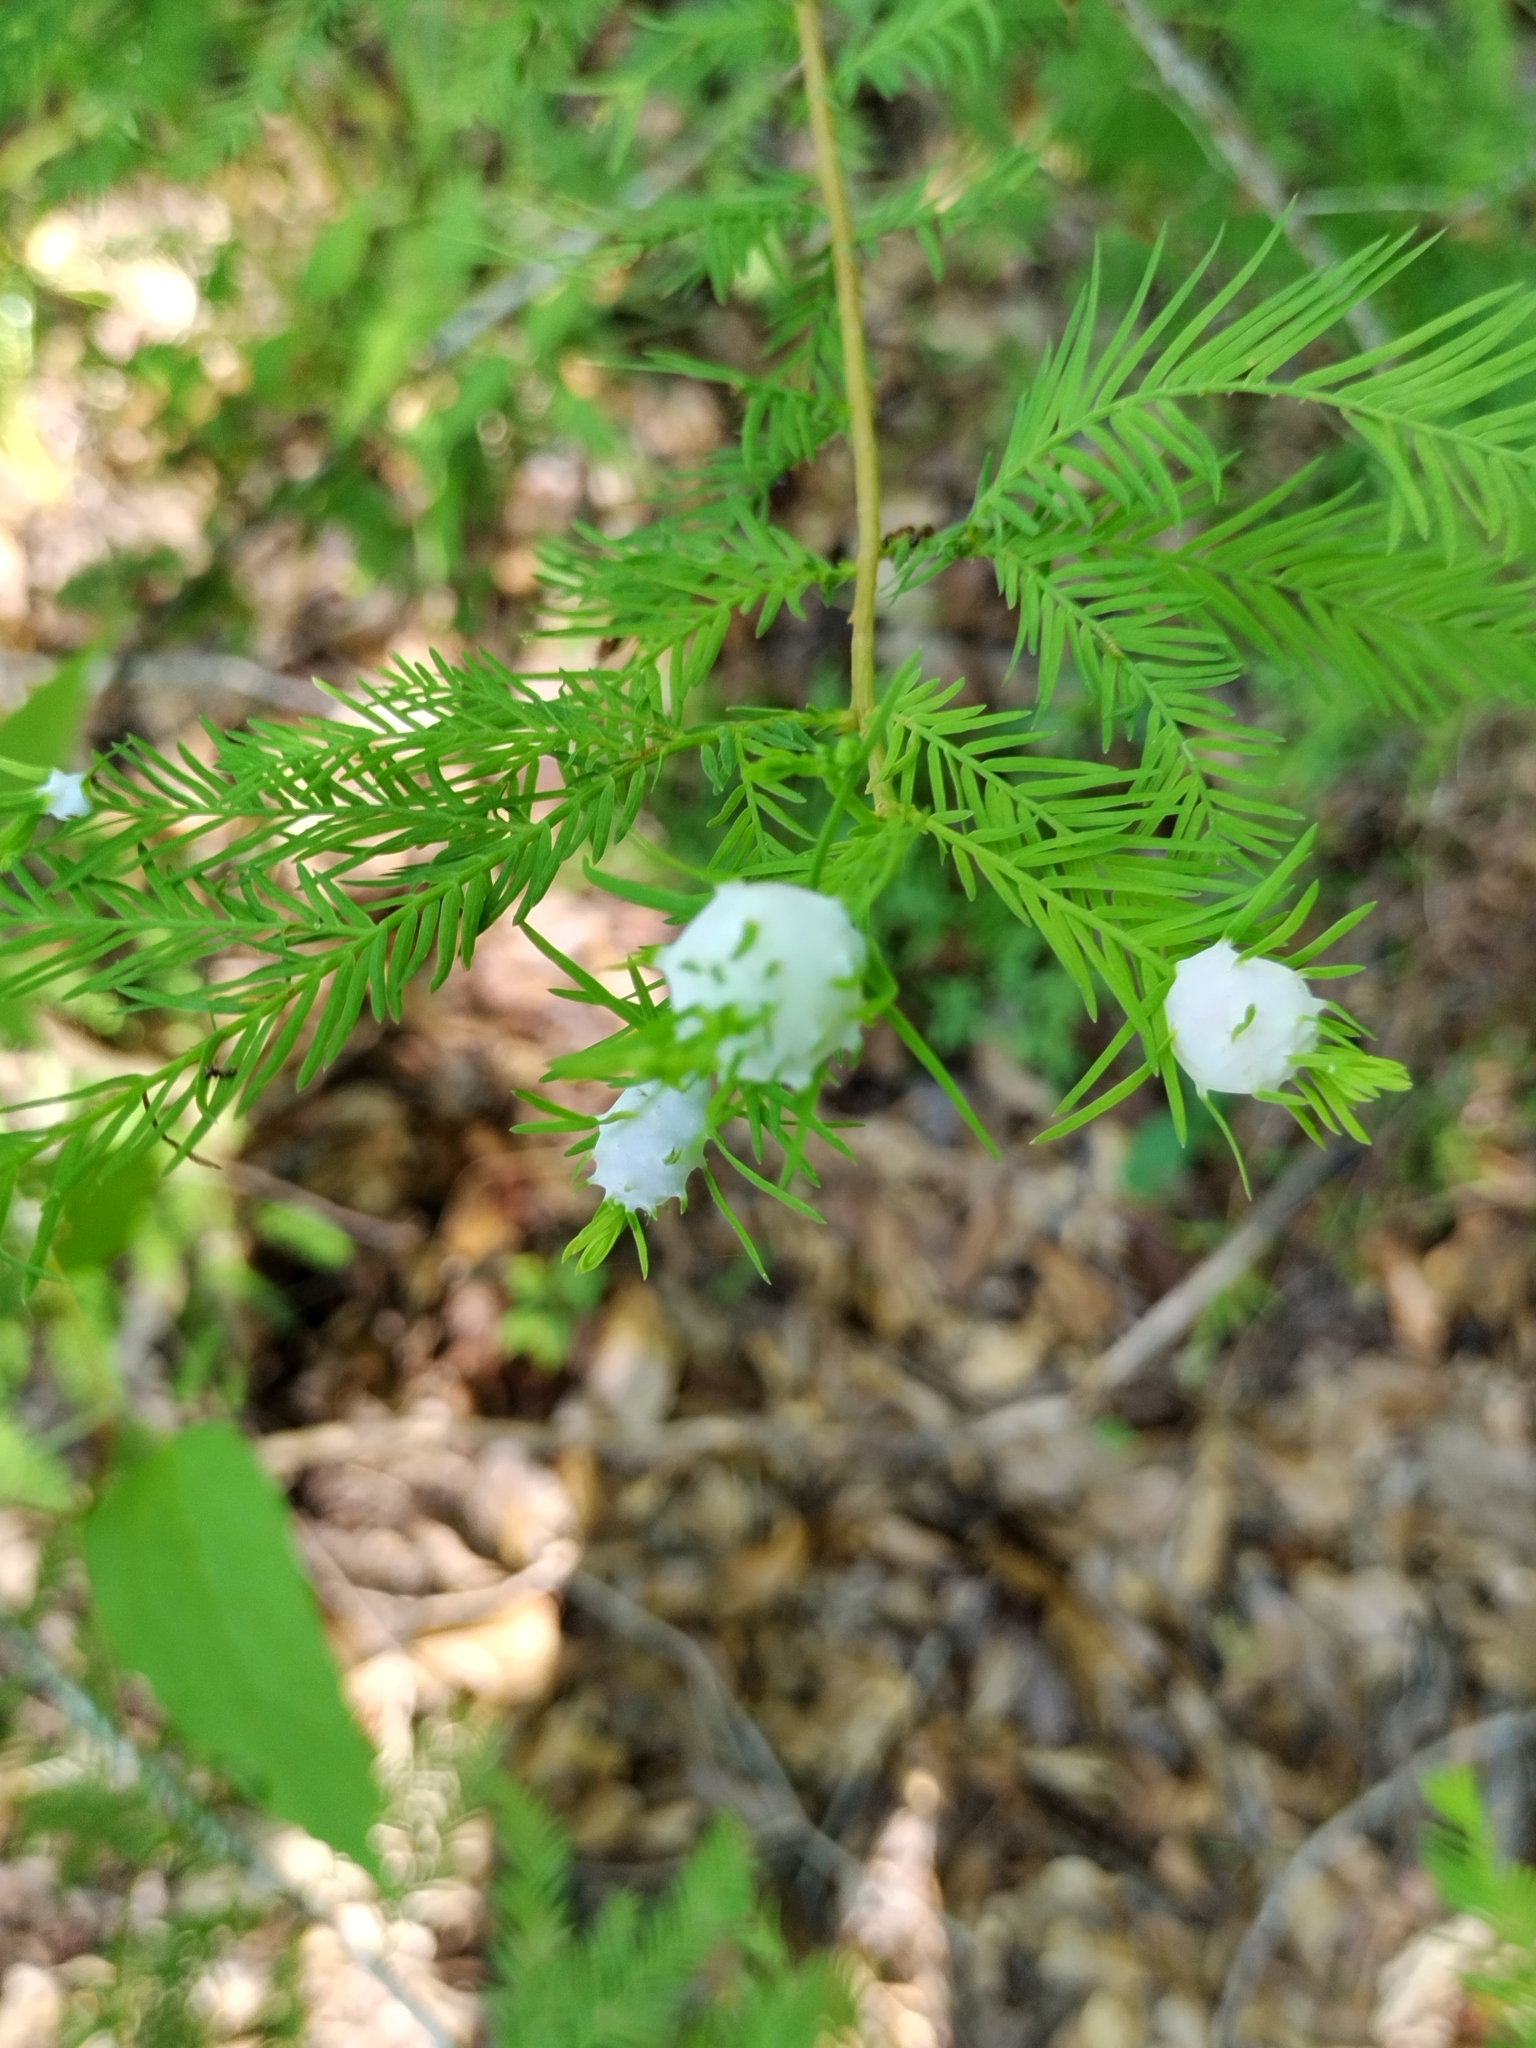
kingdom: Animalia
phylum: Arthropoda
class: Insecta
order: Diptera
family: Cecidomyiidae
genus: Taxodiomyia
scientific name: Taxodiomyia cupressiananassa
